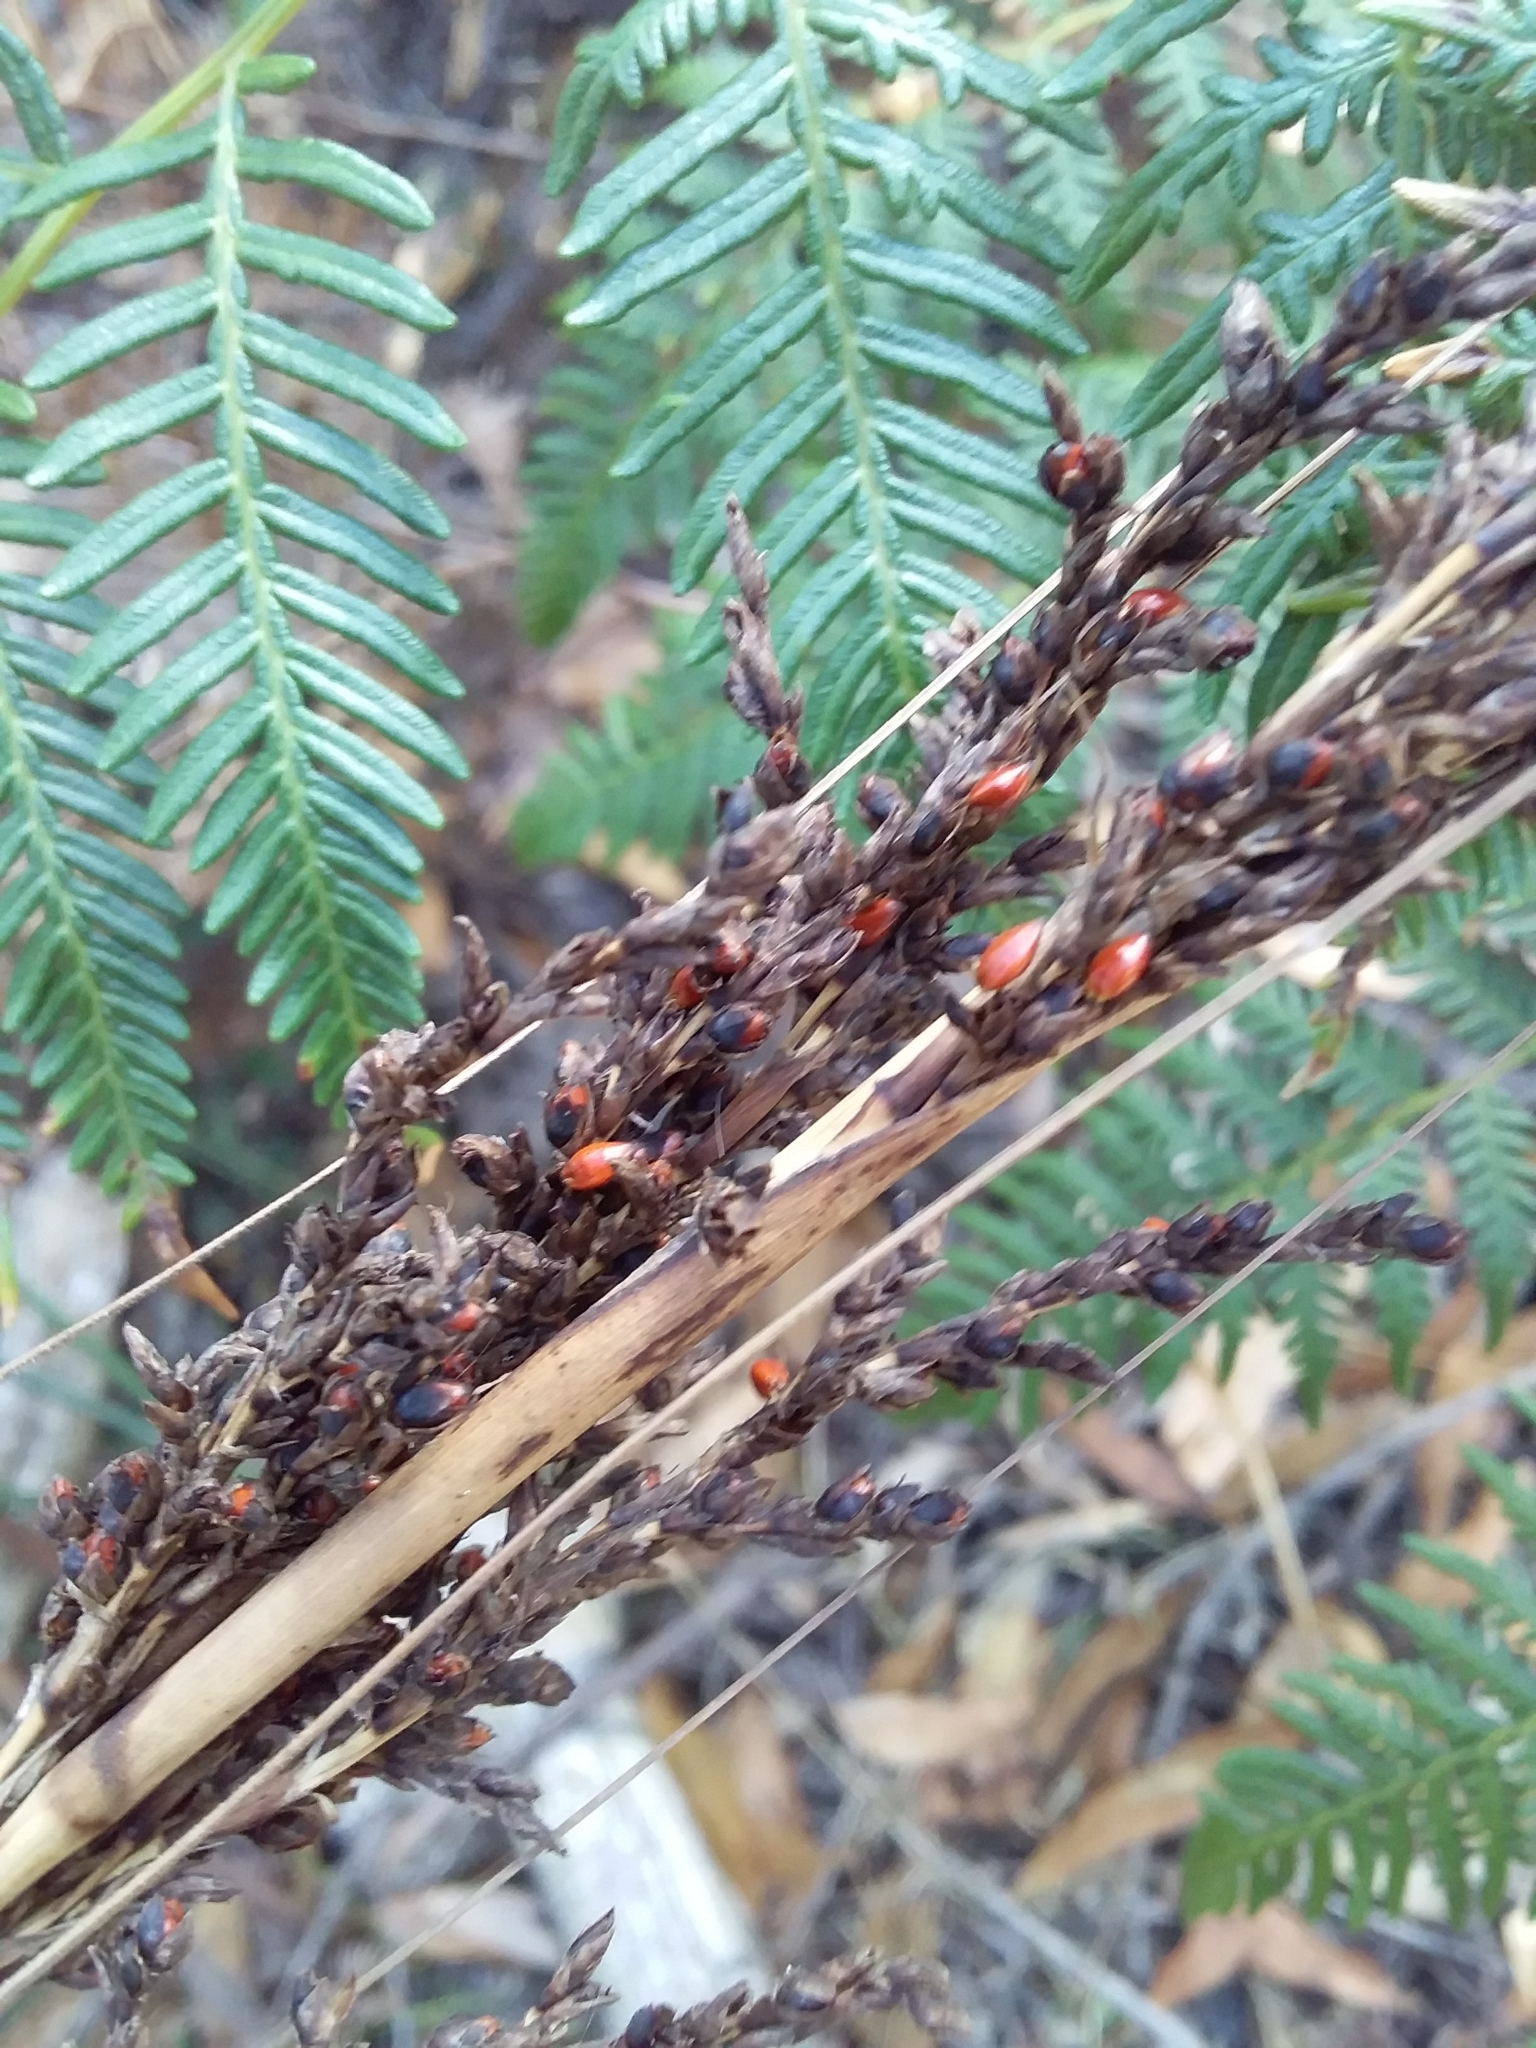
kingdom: Plantae
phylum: Tracheophyta
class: Liliopsida
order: Poales
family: Cyperaceae
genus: Gahnia
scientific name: Gahnia sieberiana
